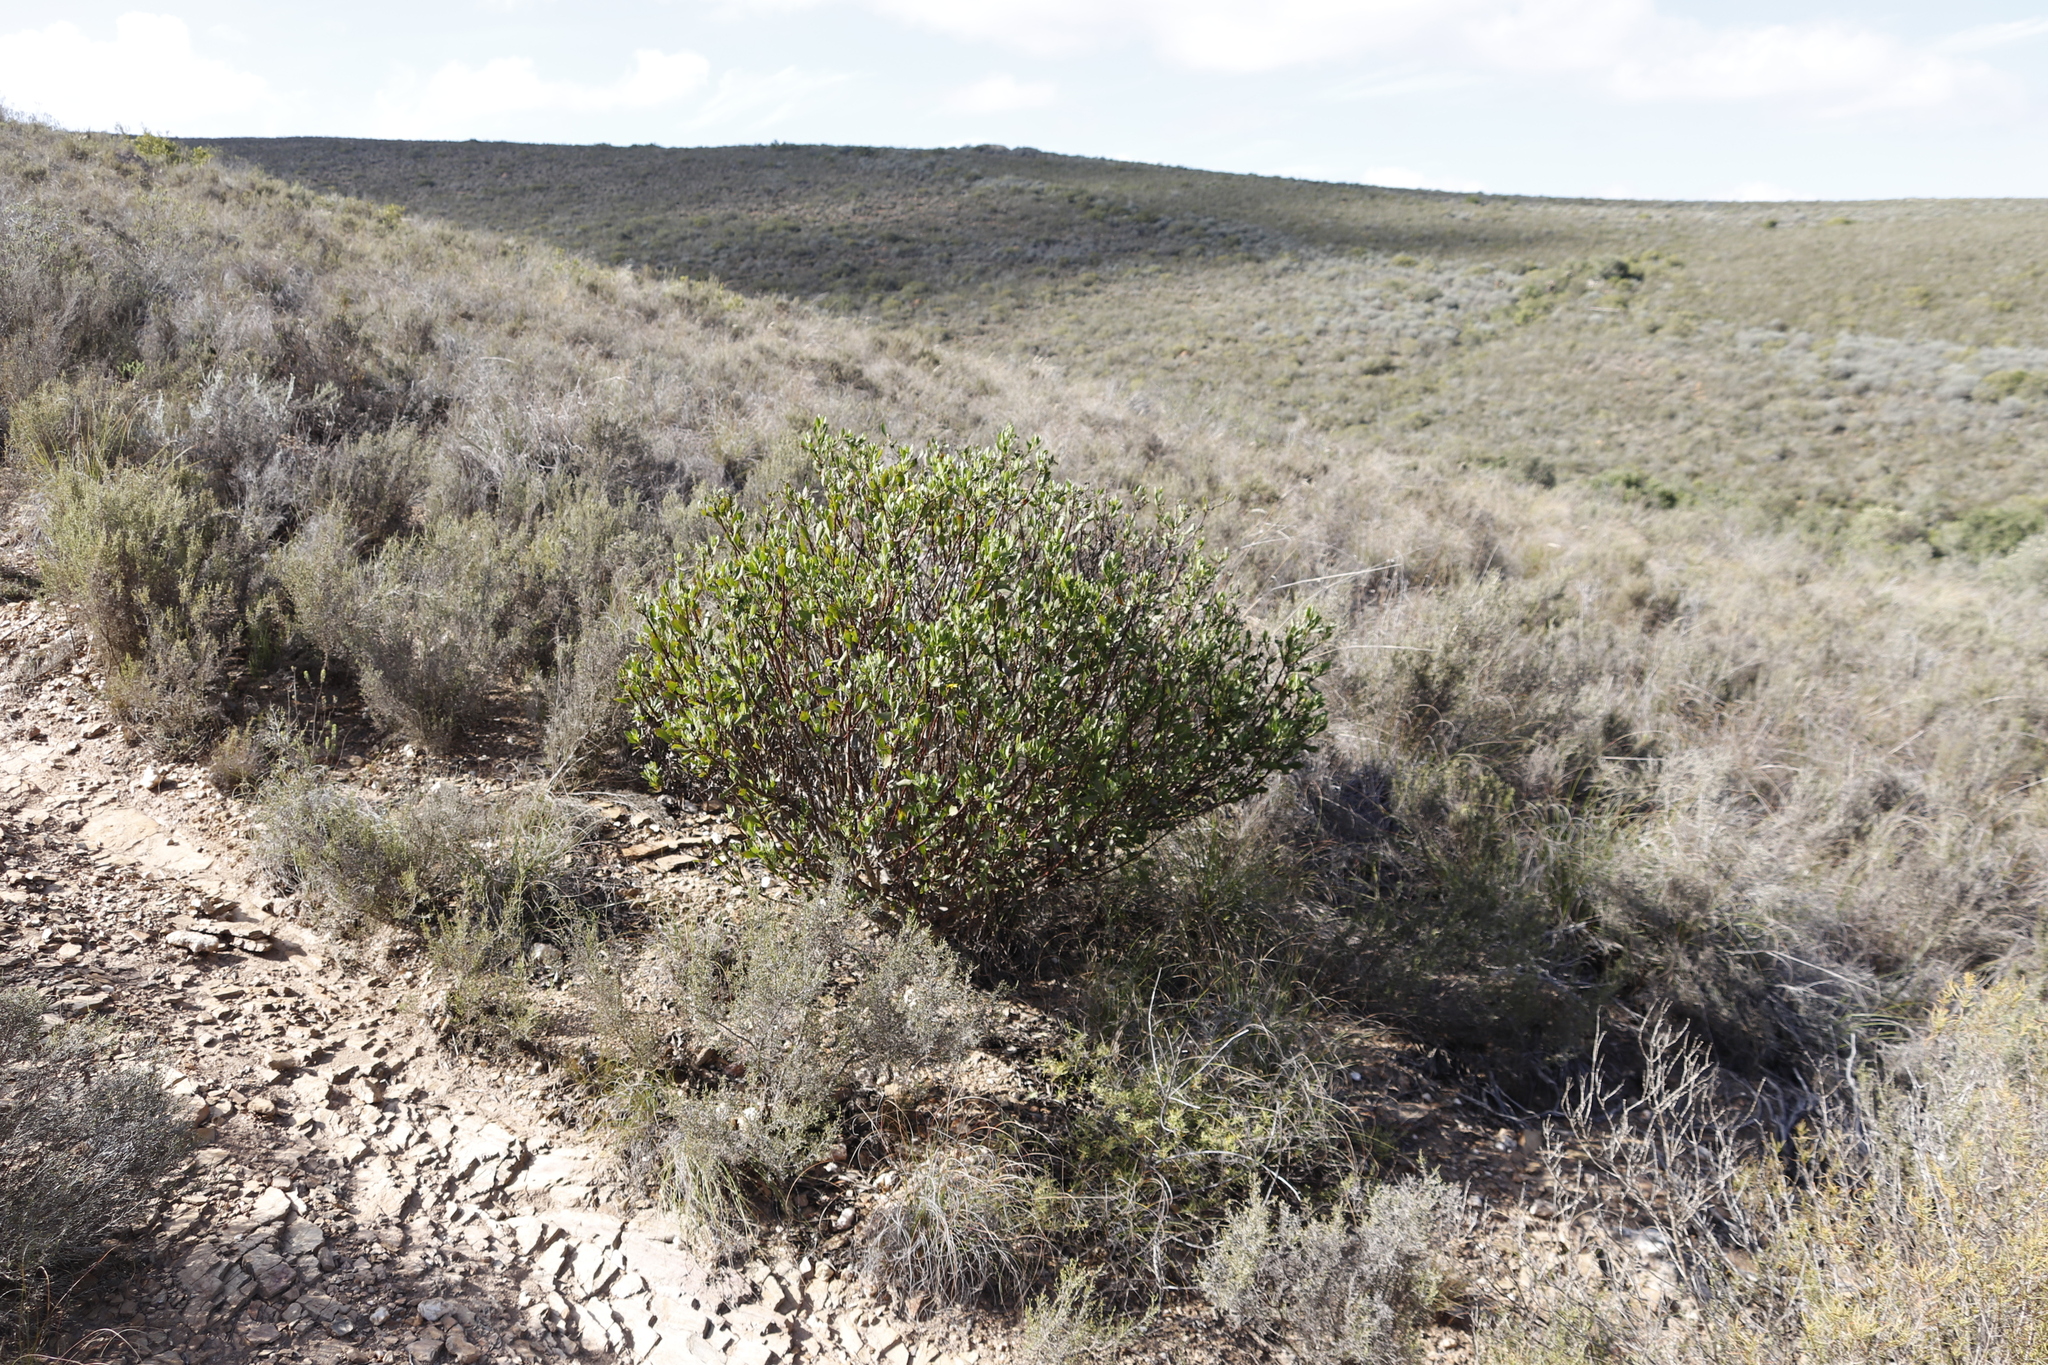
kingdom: Plantae
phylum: Tracheophyta
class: Magnoliopsida
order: Asterales
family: Asteraceae
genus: Osteospermum
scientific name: Osteospermum moniliferum
